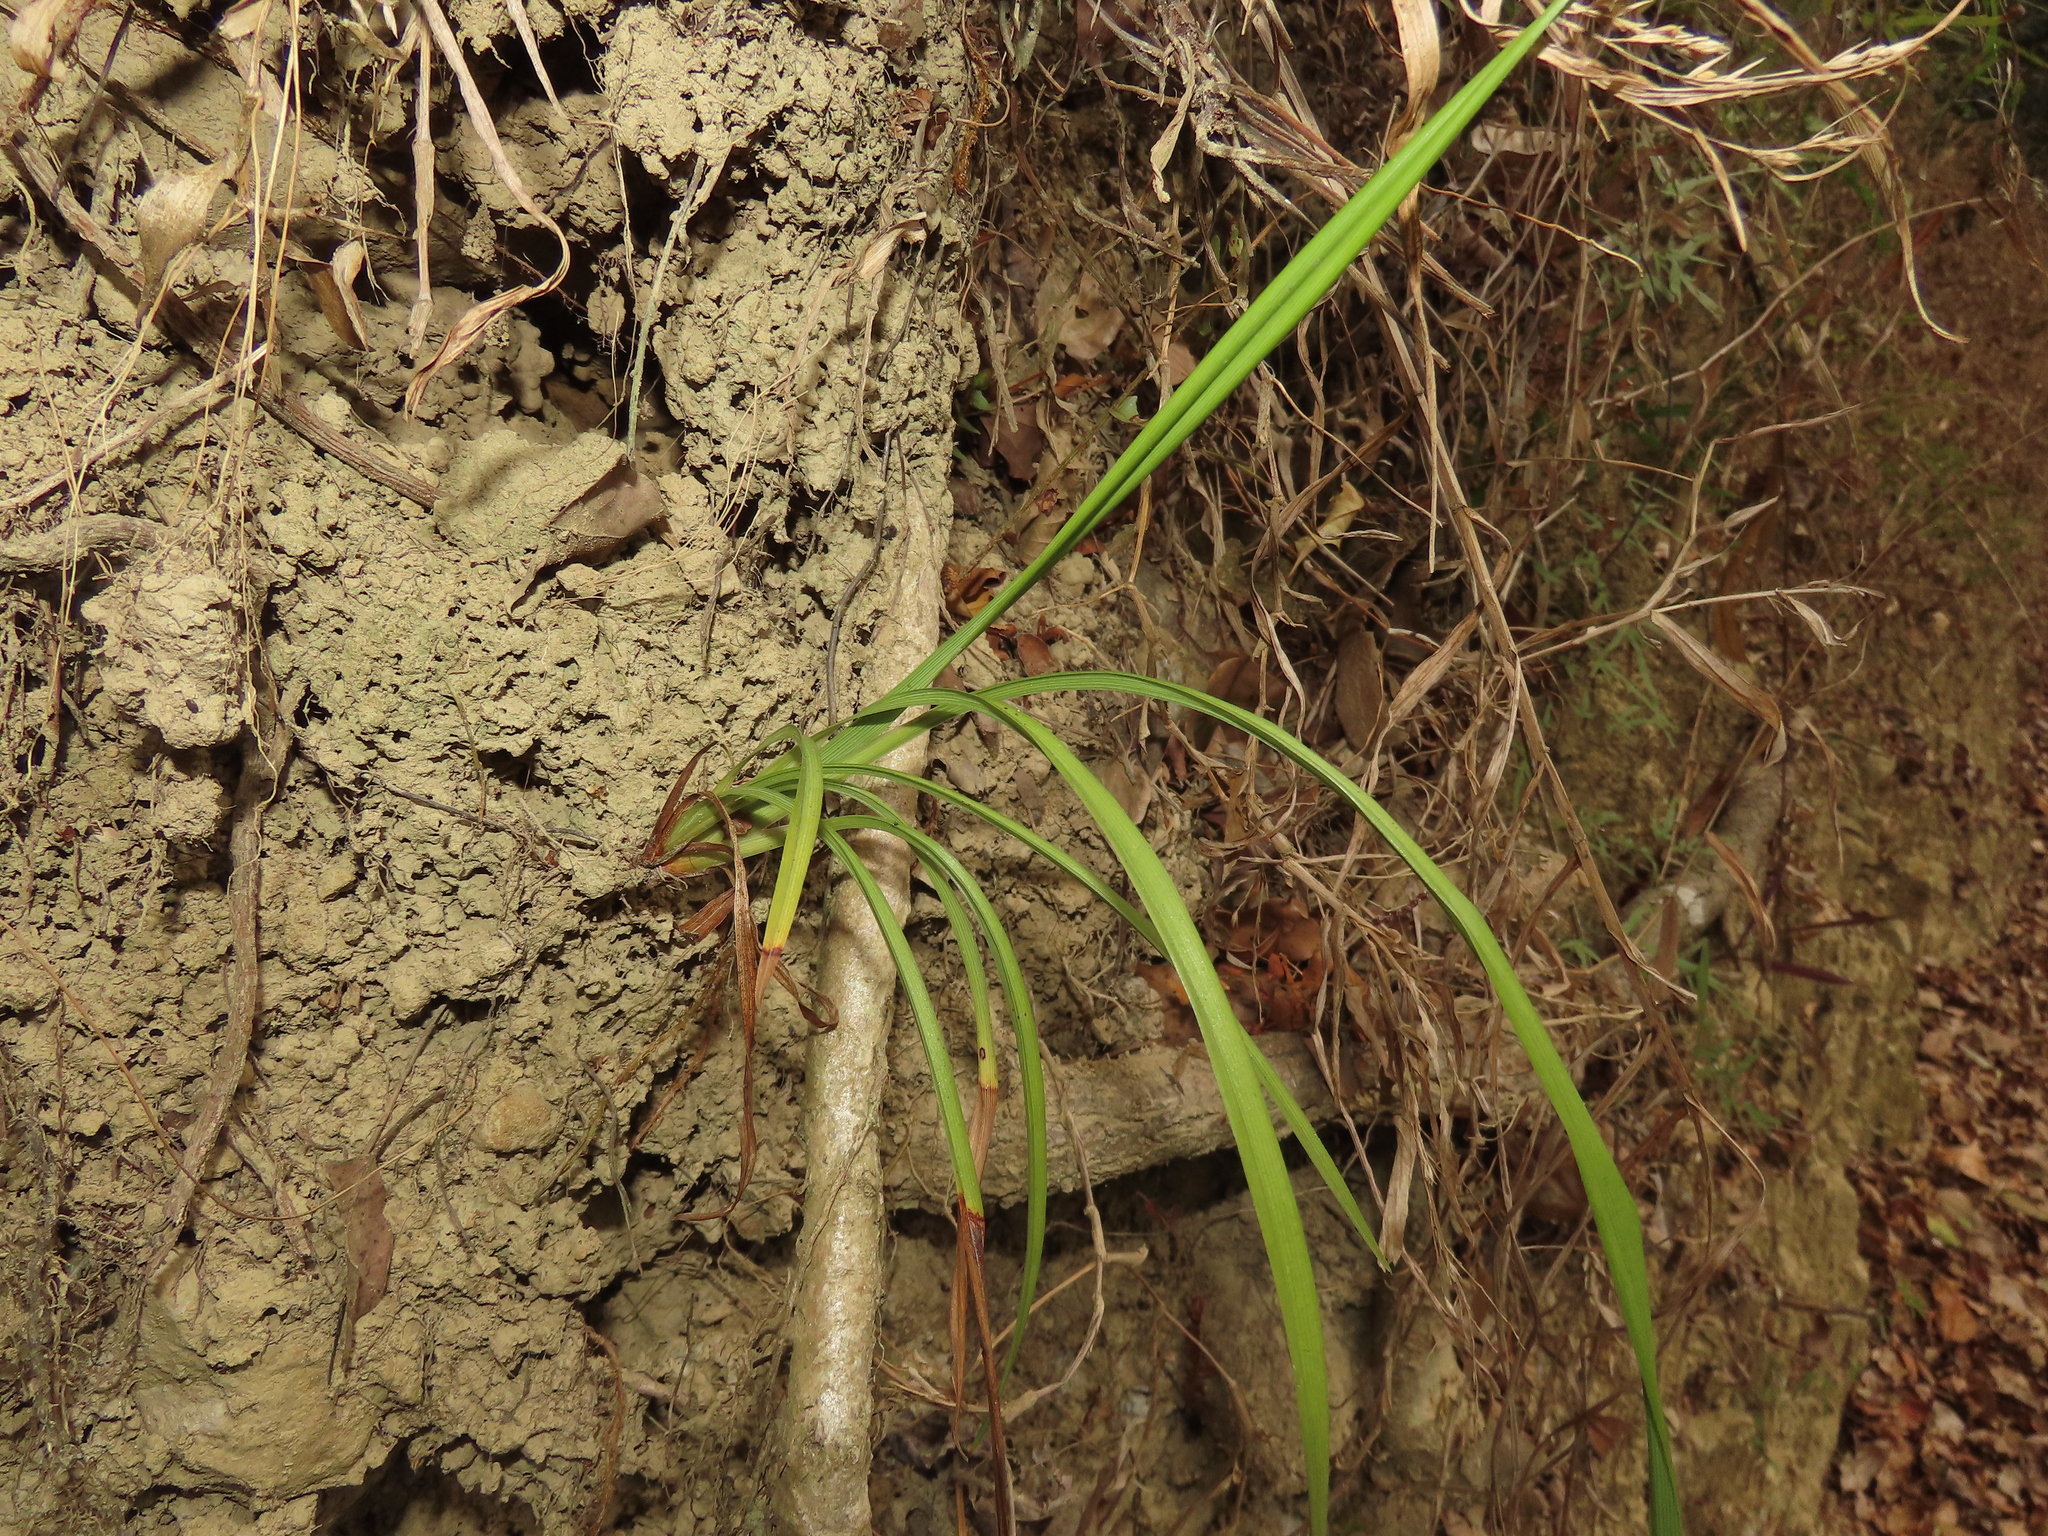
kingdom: Plantae
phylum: Tracheophyta
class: Liliopsida
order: Asparagales
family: Asphodelaceae
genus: Dianella
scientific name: Dianella ensifolia
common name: New zealand lilyplant
